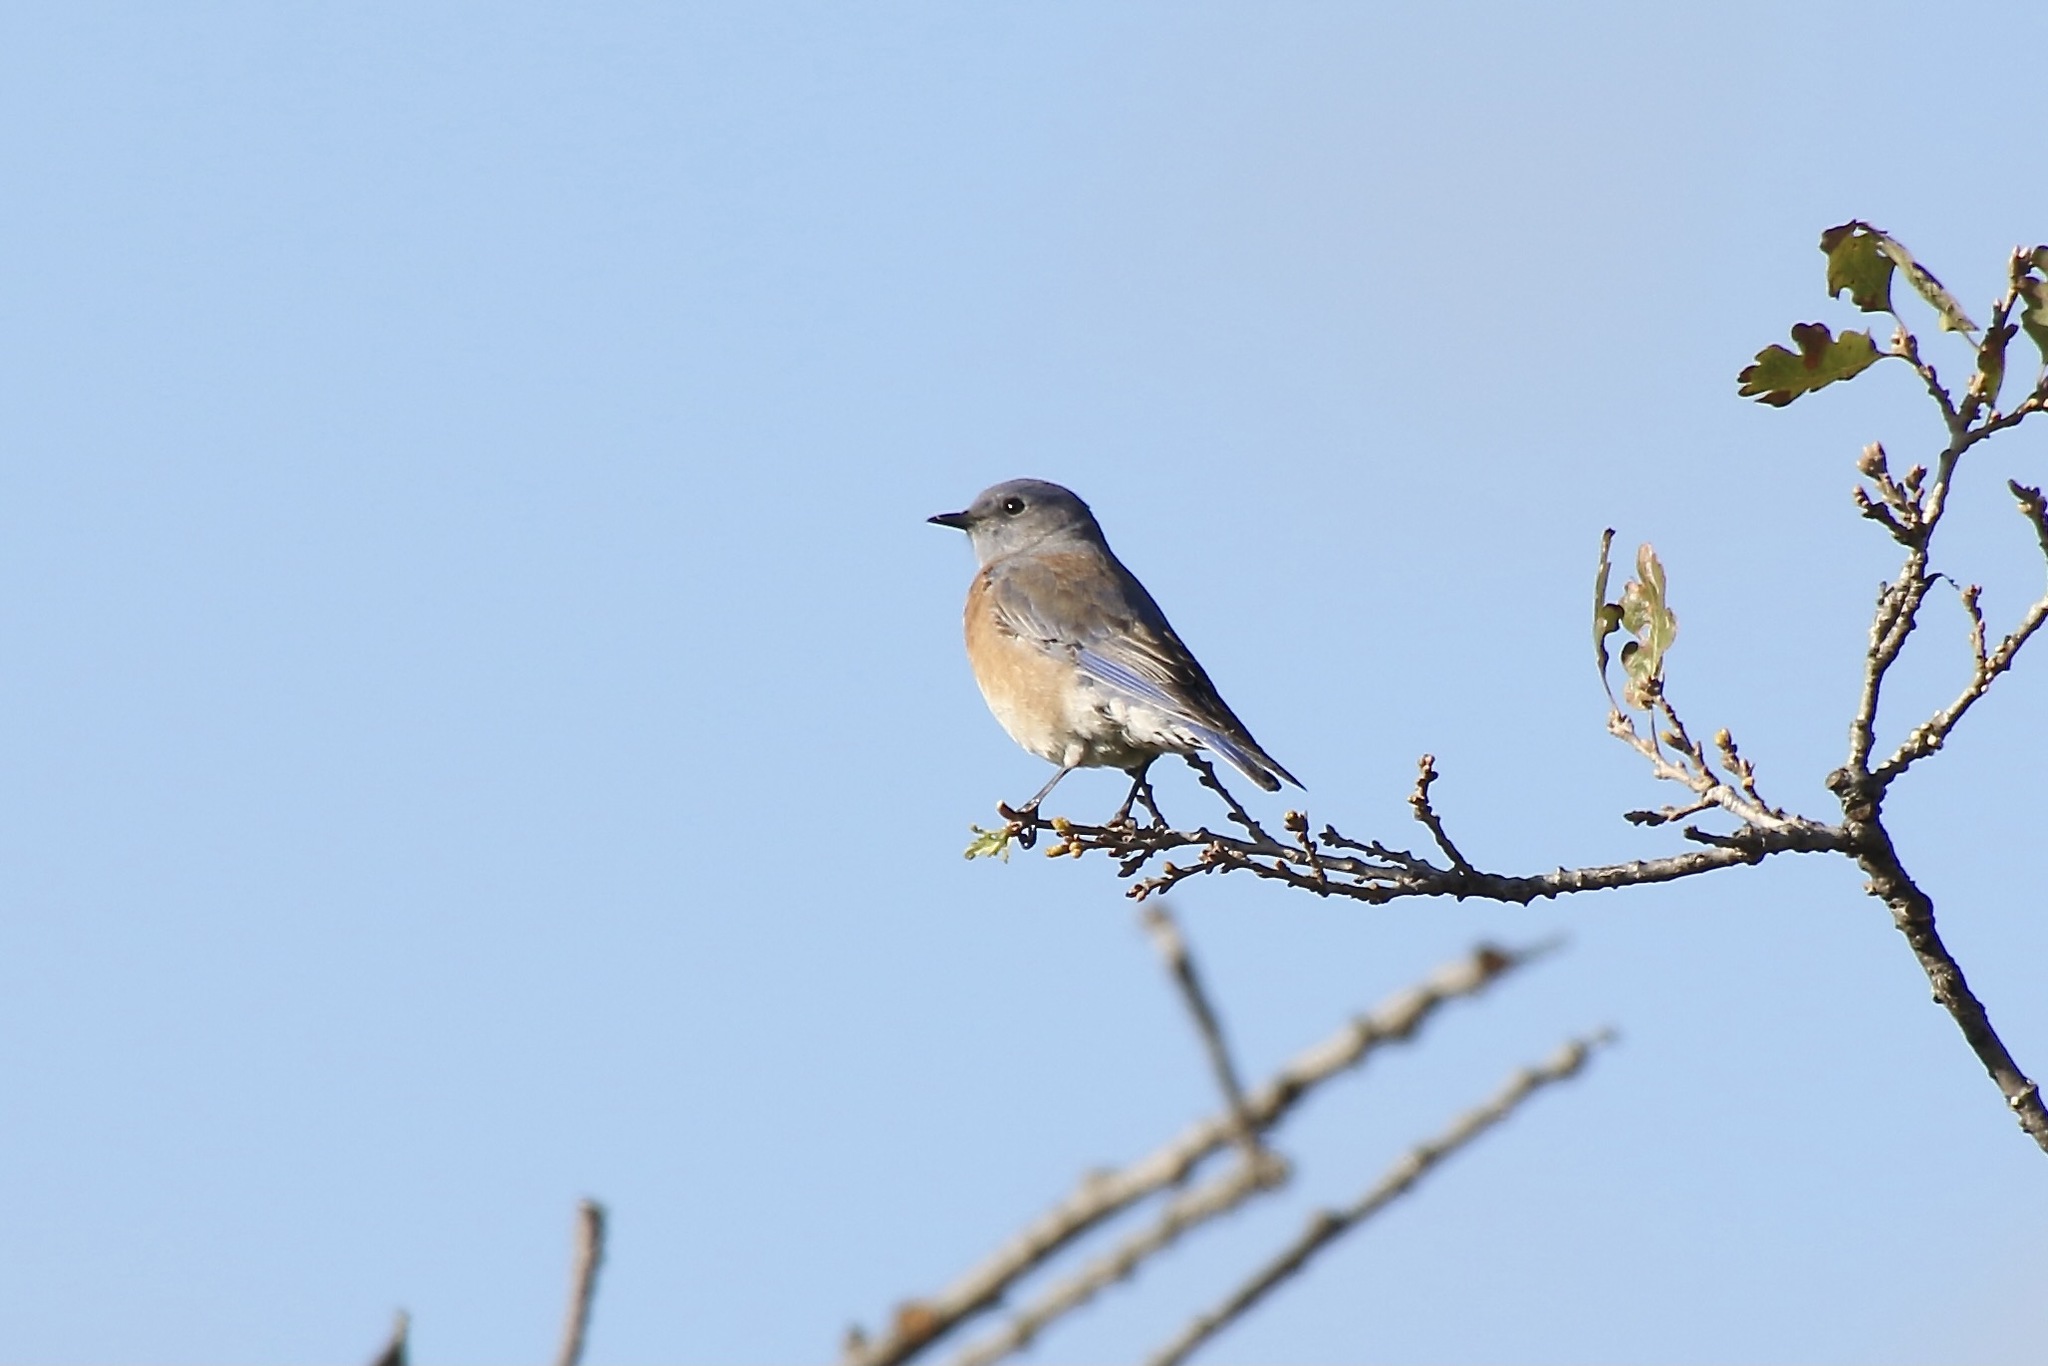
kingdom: Animalia
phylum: Chordata
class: Aves
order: Passeriformes
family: Turdidae
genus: Sialia
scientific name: Sialia mexicana
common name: Western bluebird
